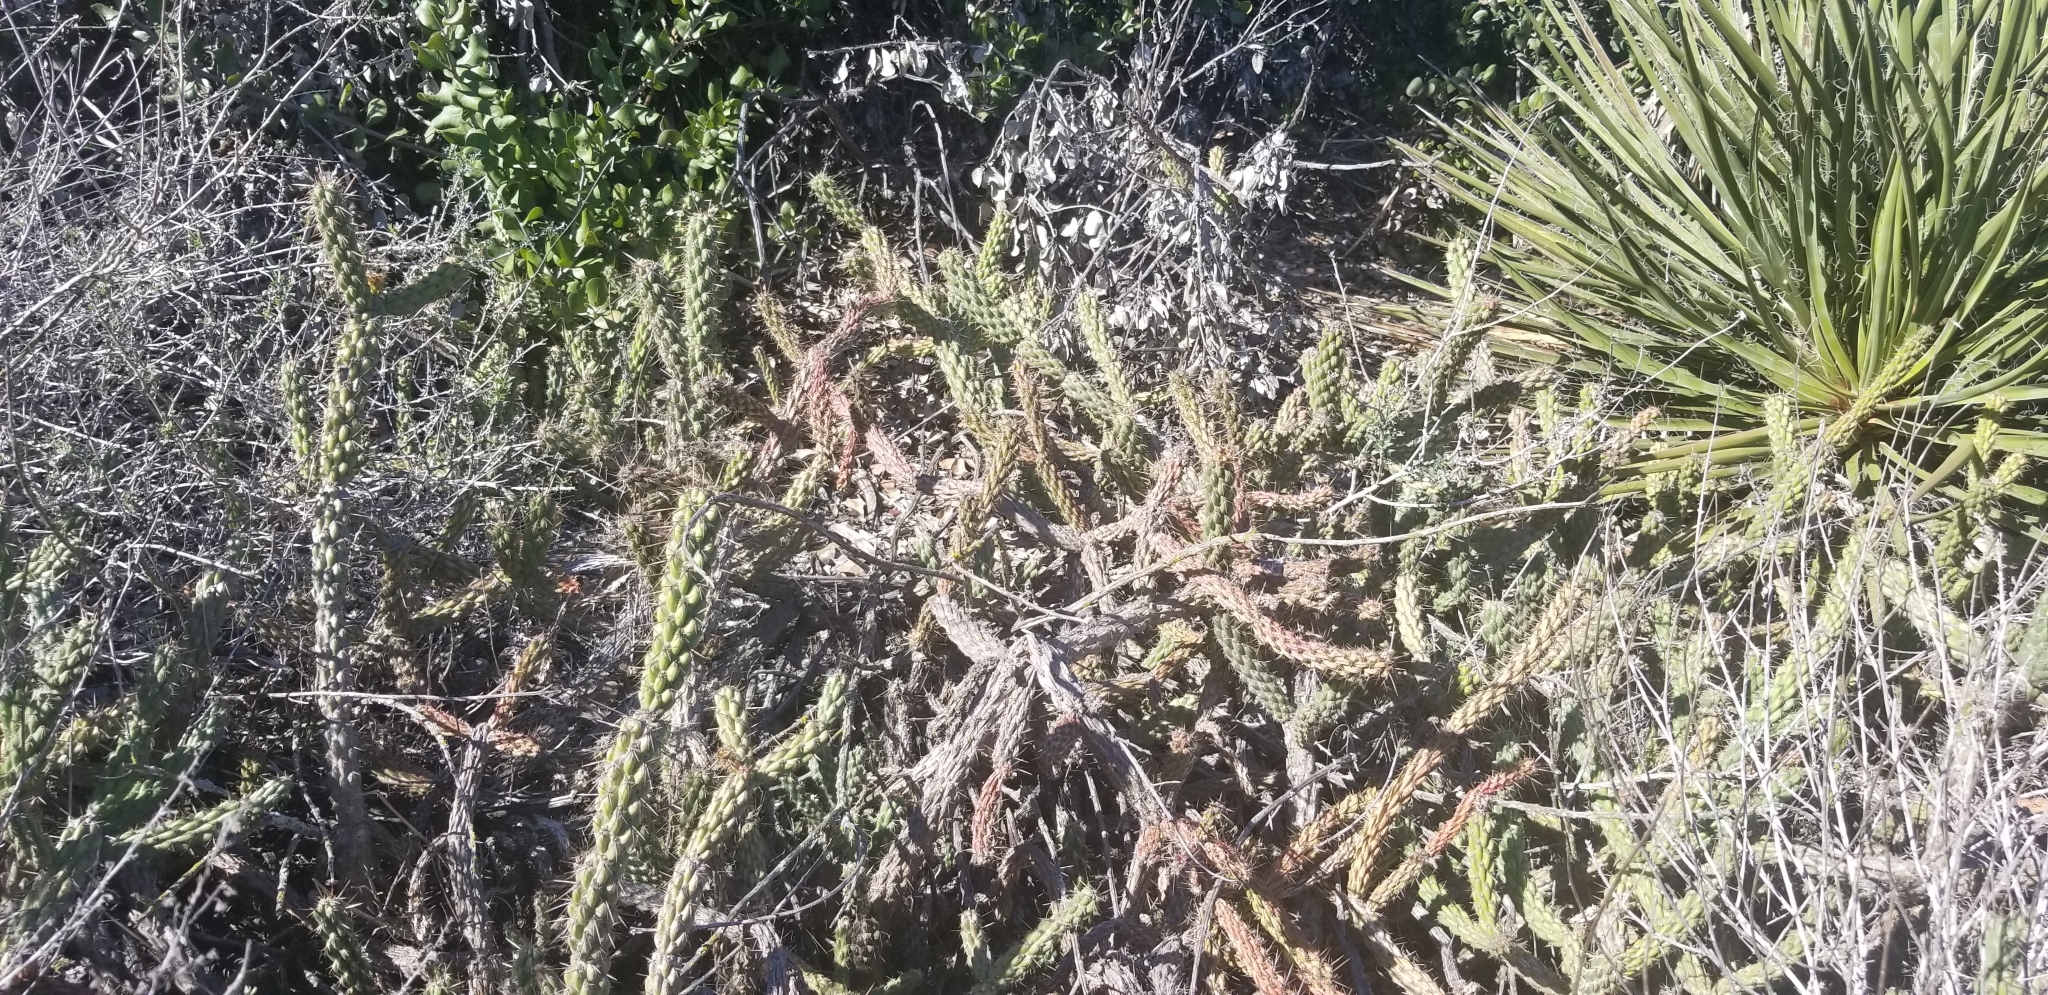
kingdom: Plantae
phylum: Tracheophyta
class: Magnoliopsida
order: Caryophyllales
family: Cactaceae
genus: Cylindropuntia
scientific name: Cylindropuntia californica
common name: Snake cholla
